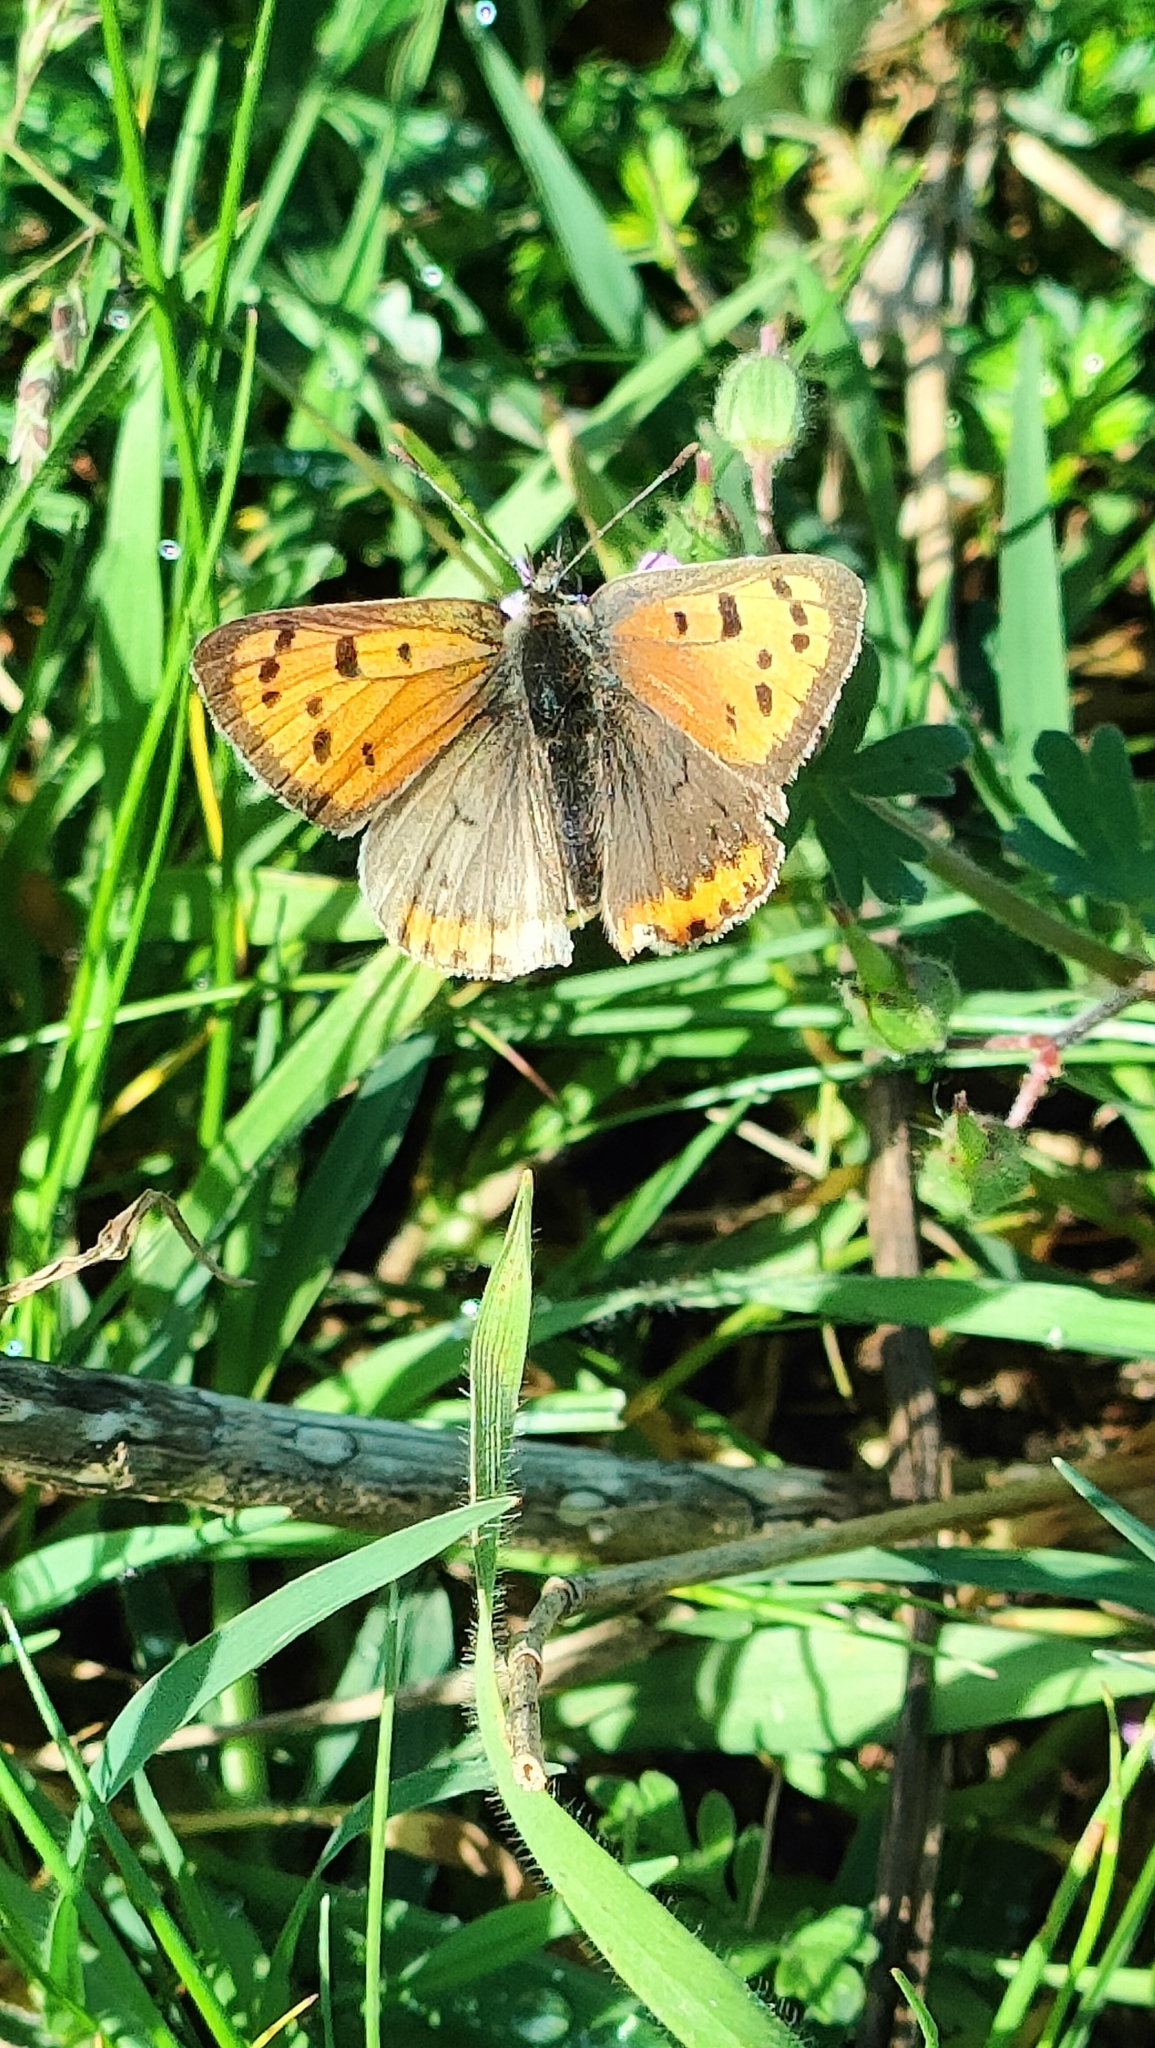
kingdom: Animalia
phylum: Arthropoda
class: Insecta
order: Lepidoptera
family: Lycaenidae
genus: Lycaena
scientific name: Lycaena phlaeas
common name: Small copper
